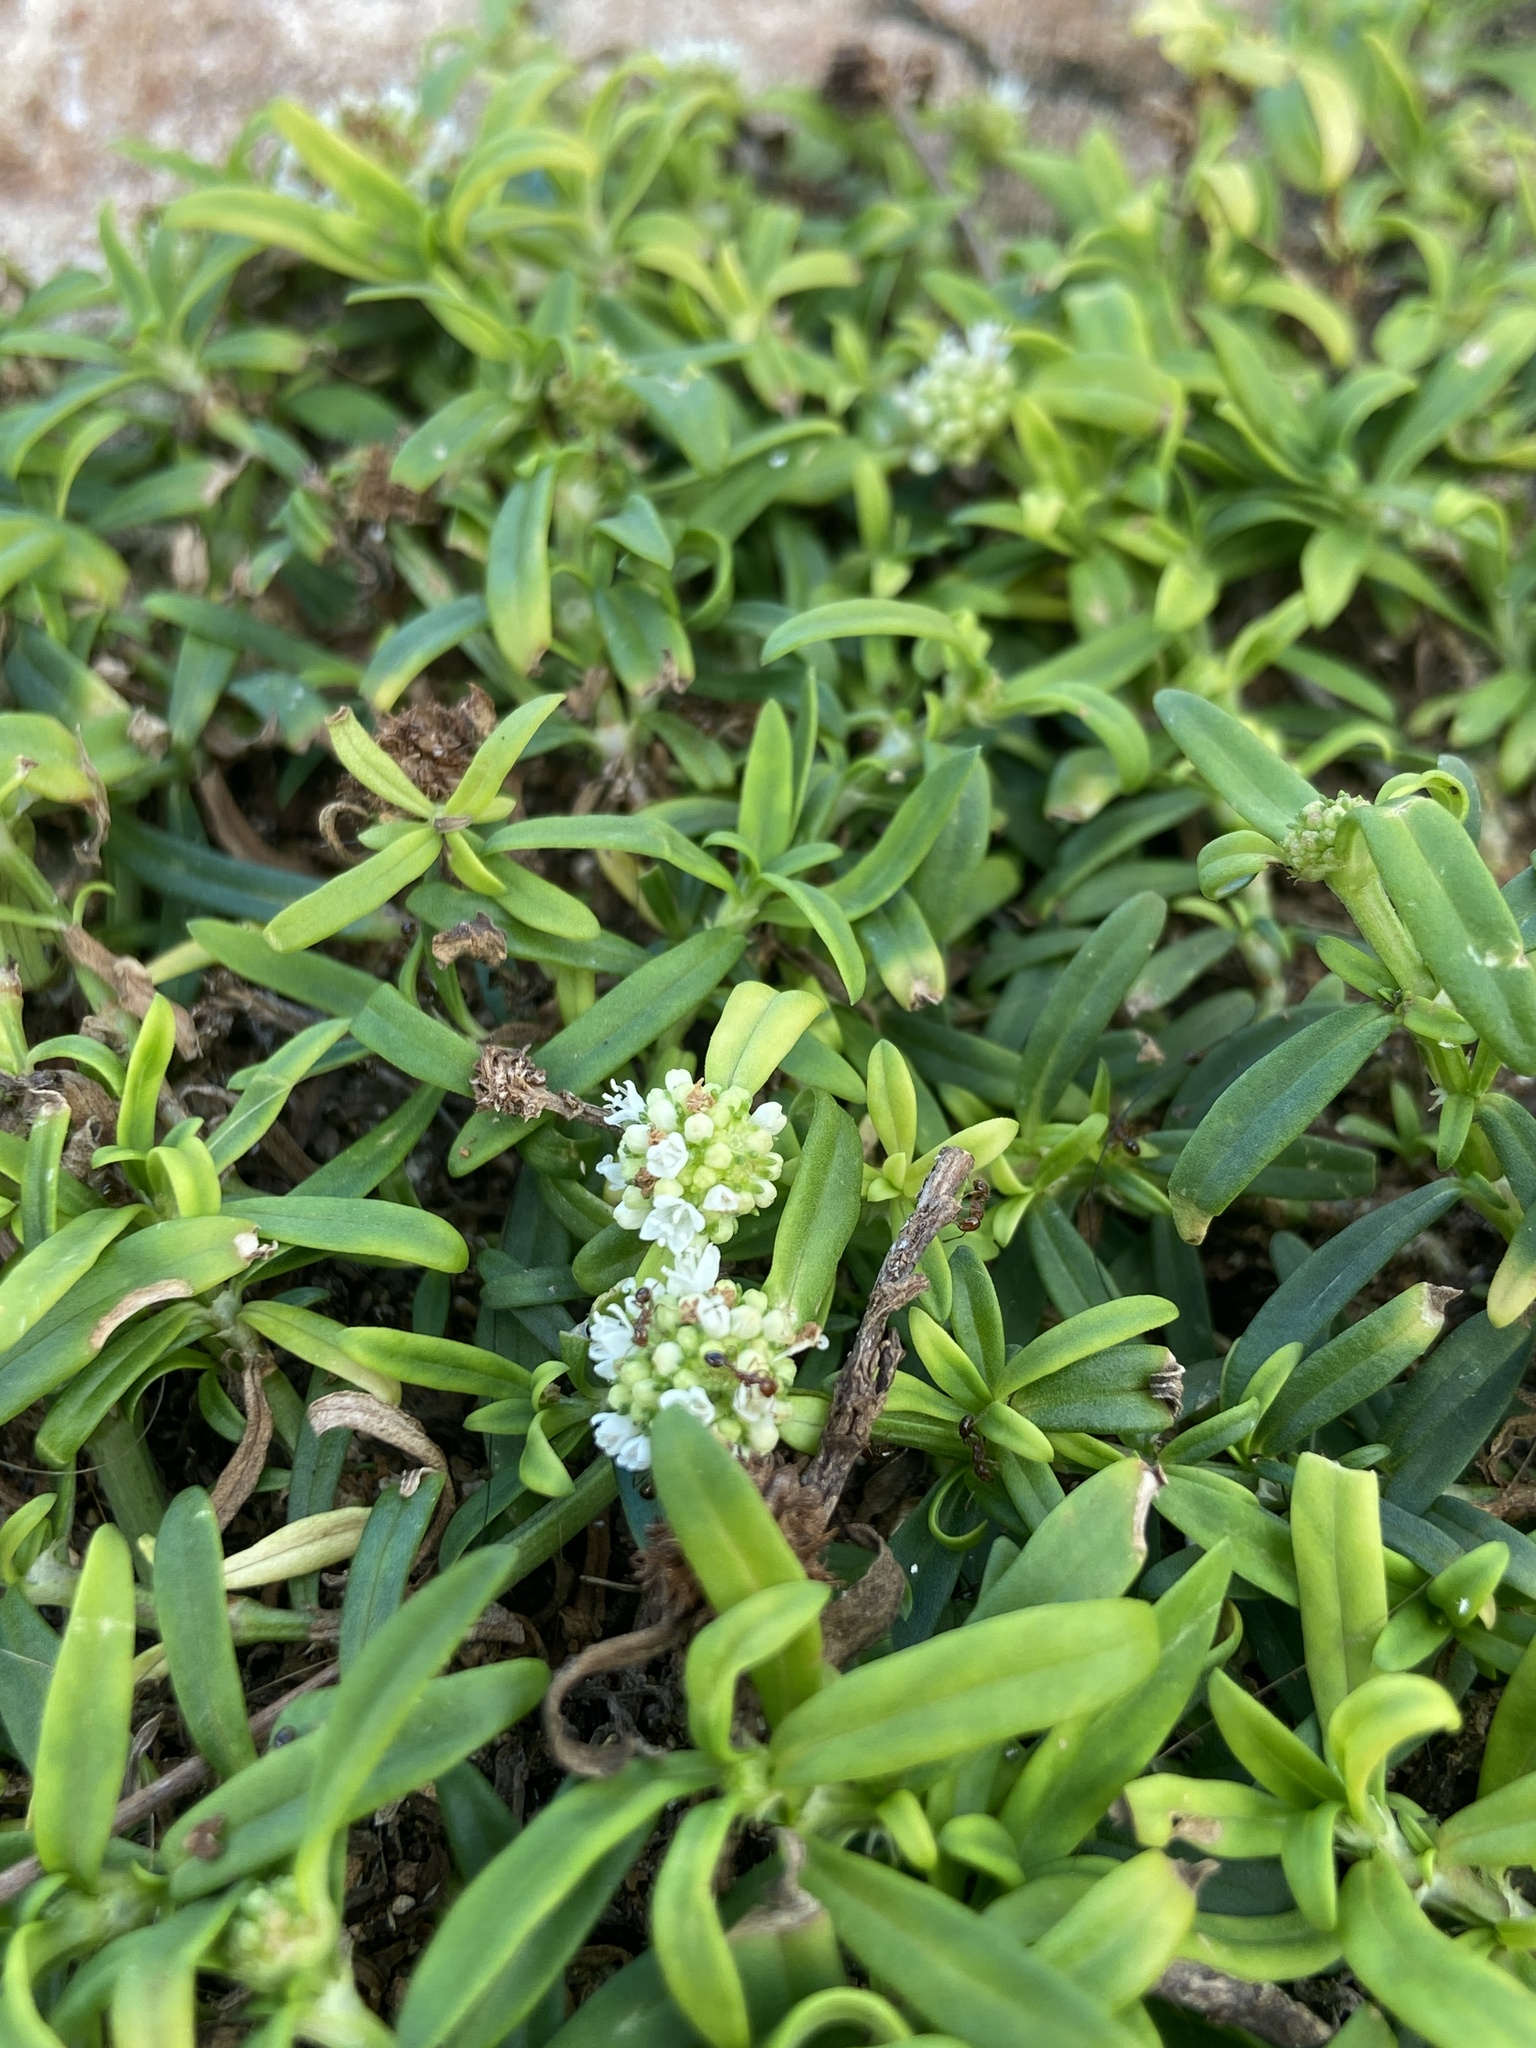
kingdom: Plantae
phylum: Tracheophyta
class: Magnoliopsida
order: Gentianales
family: Rubiaceae
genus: Spermacoce
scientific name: Spermacoce verticillata
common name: Shrubby false buttonweed
